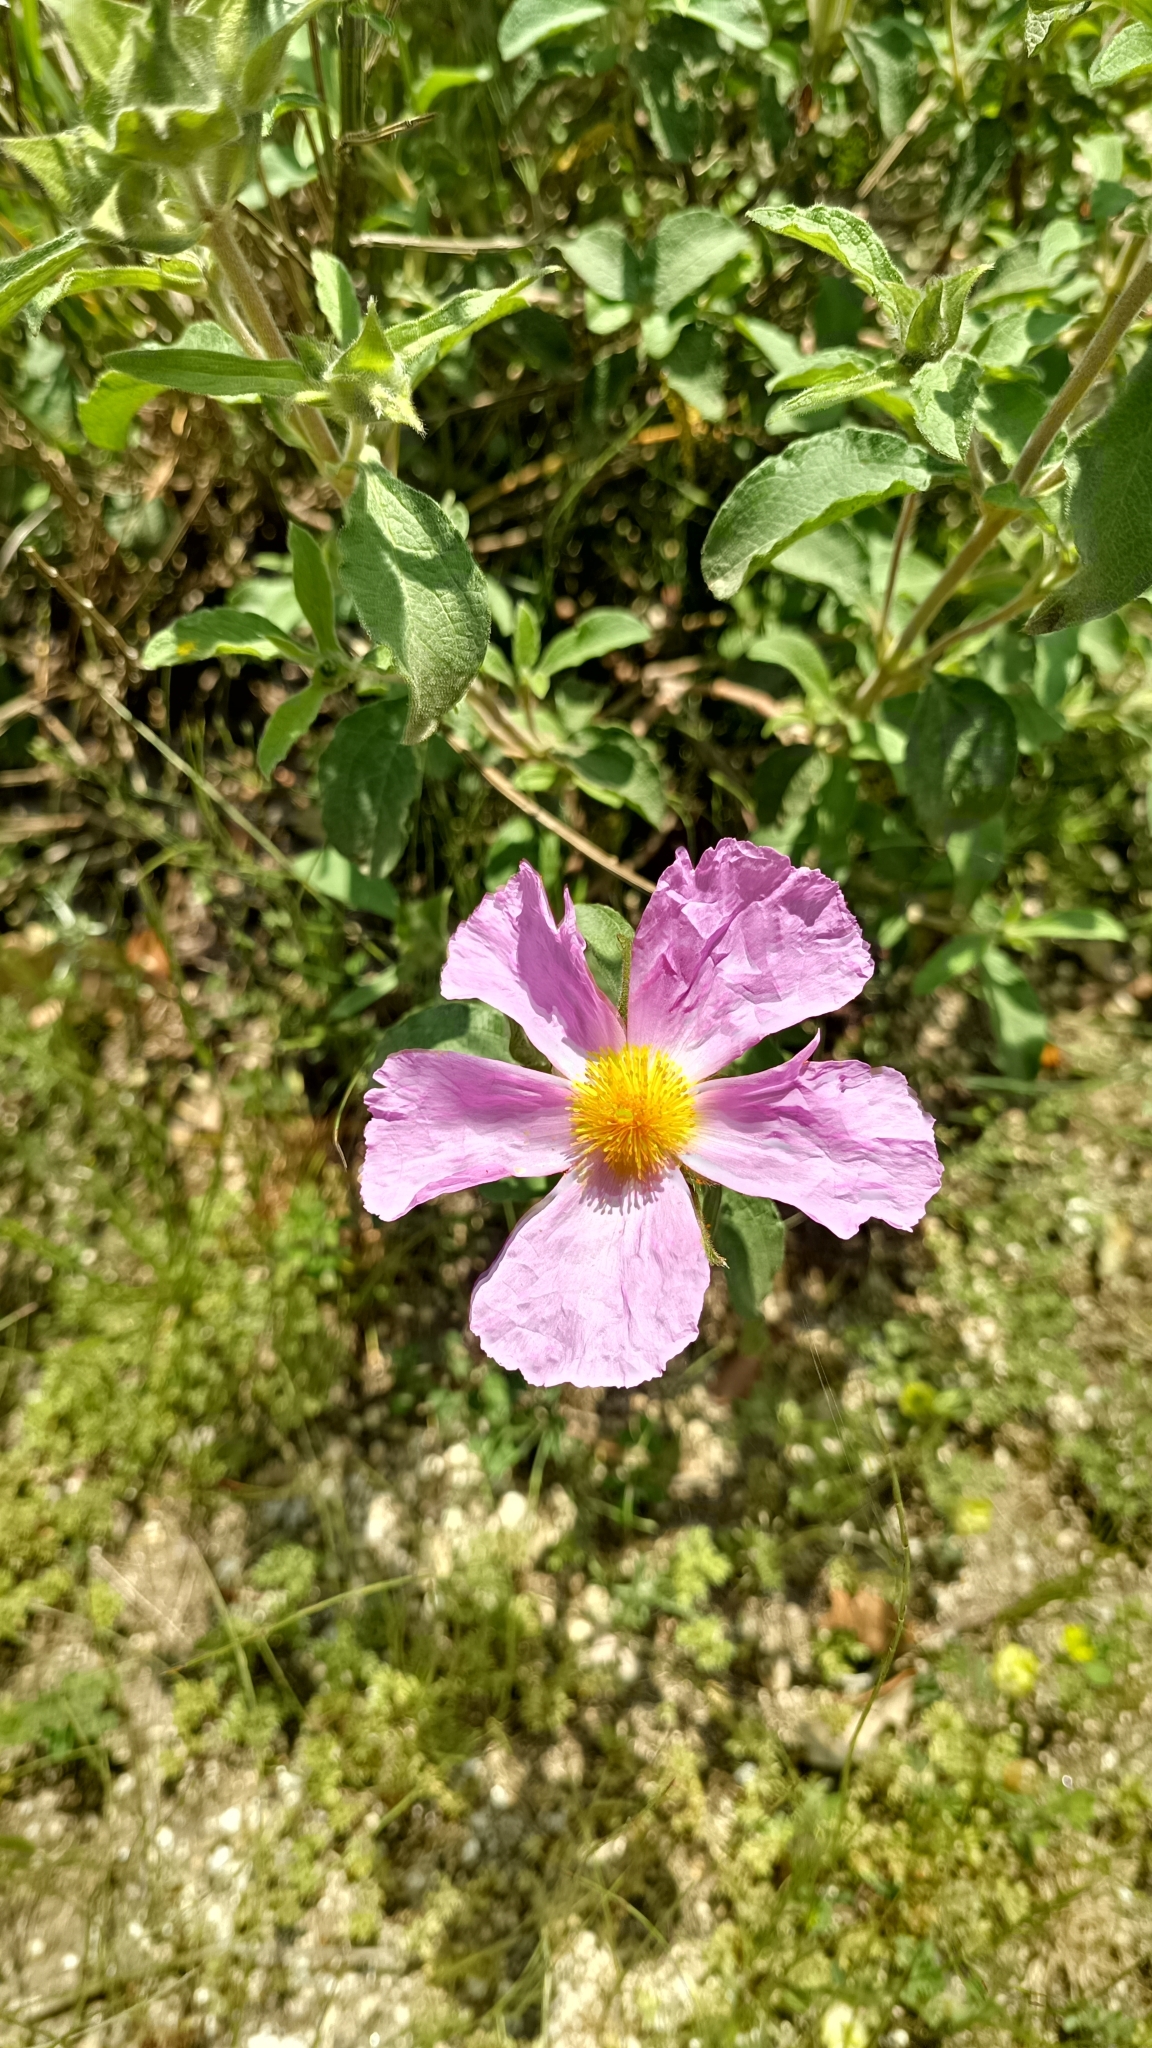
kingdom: Plantae
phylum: Tracheophyta
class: Magnoliopsida
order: Malvales
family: Cistaceae
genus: Cistus
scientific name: Cistus creticus
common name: Cretan rockrose
